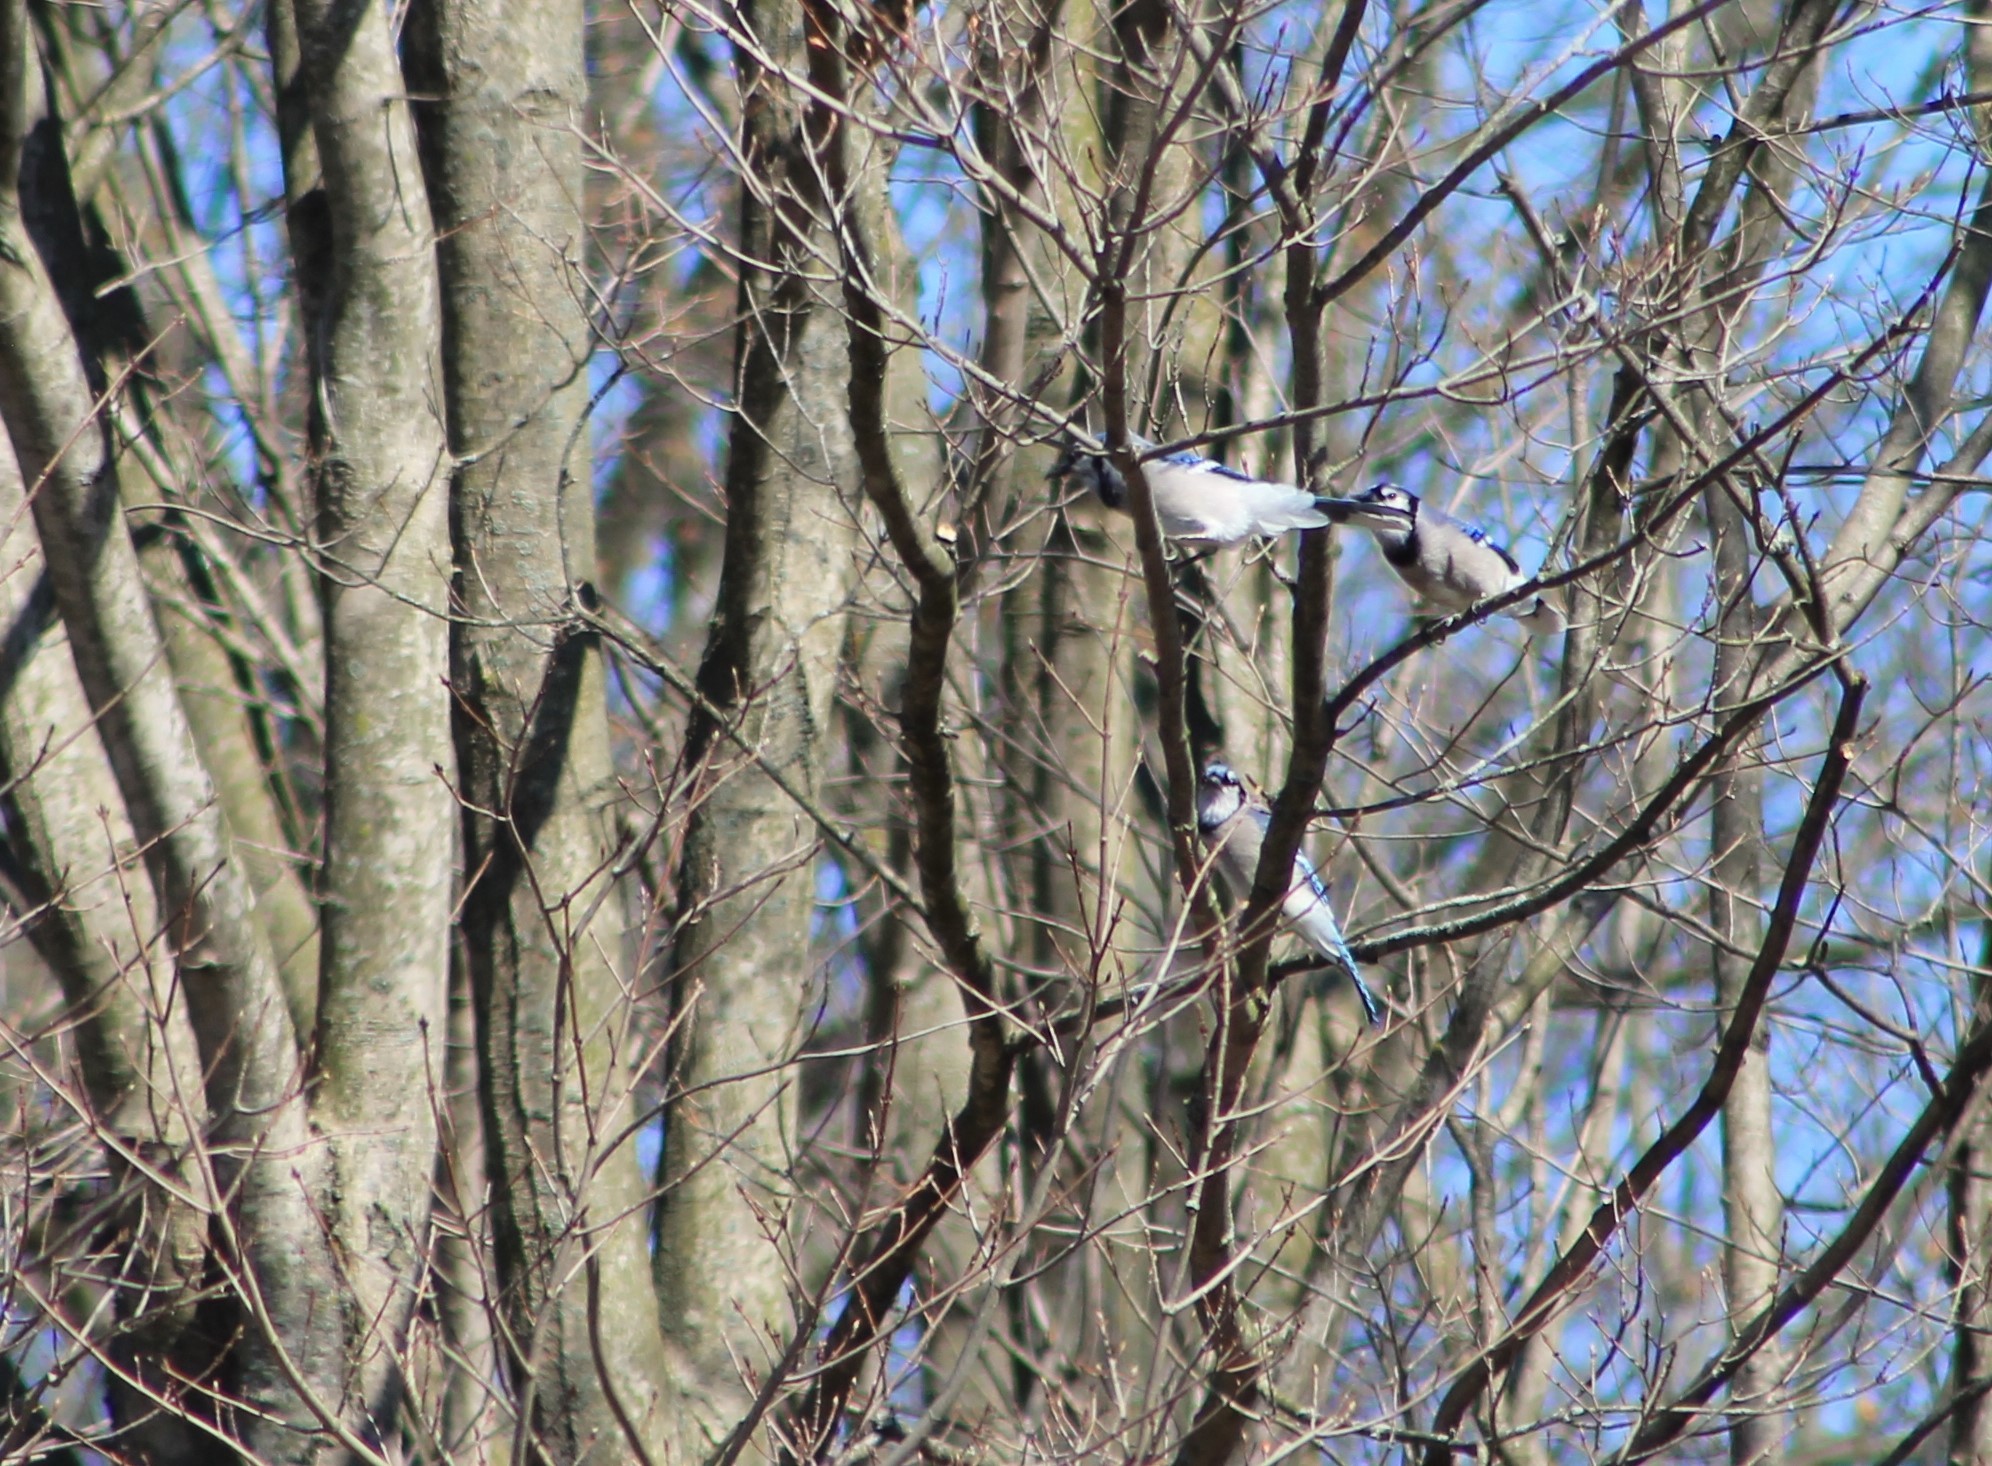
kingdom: Animalia
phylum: Chordata
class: Aves
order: Passeriformes
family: Corvidae
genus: Cyanocitta
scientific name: Cyanocitta cristata
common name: Blue jay
